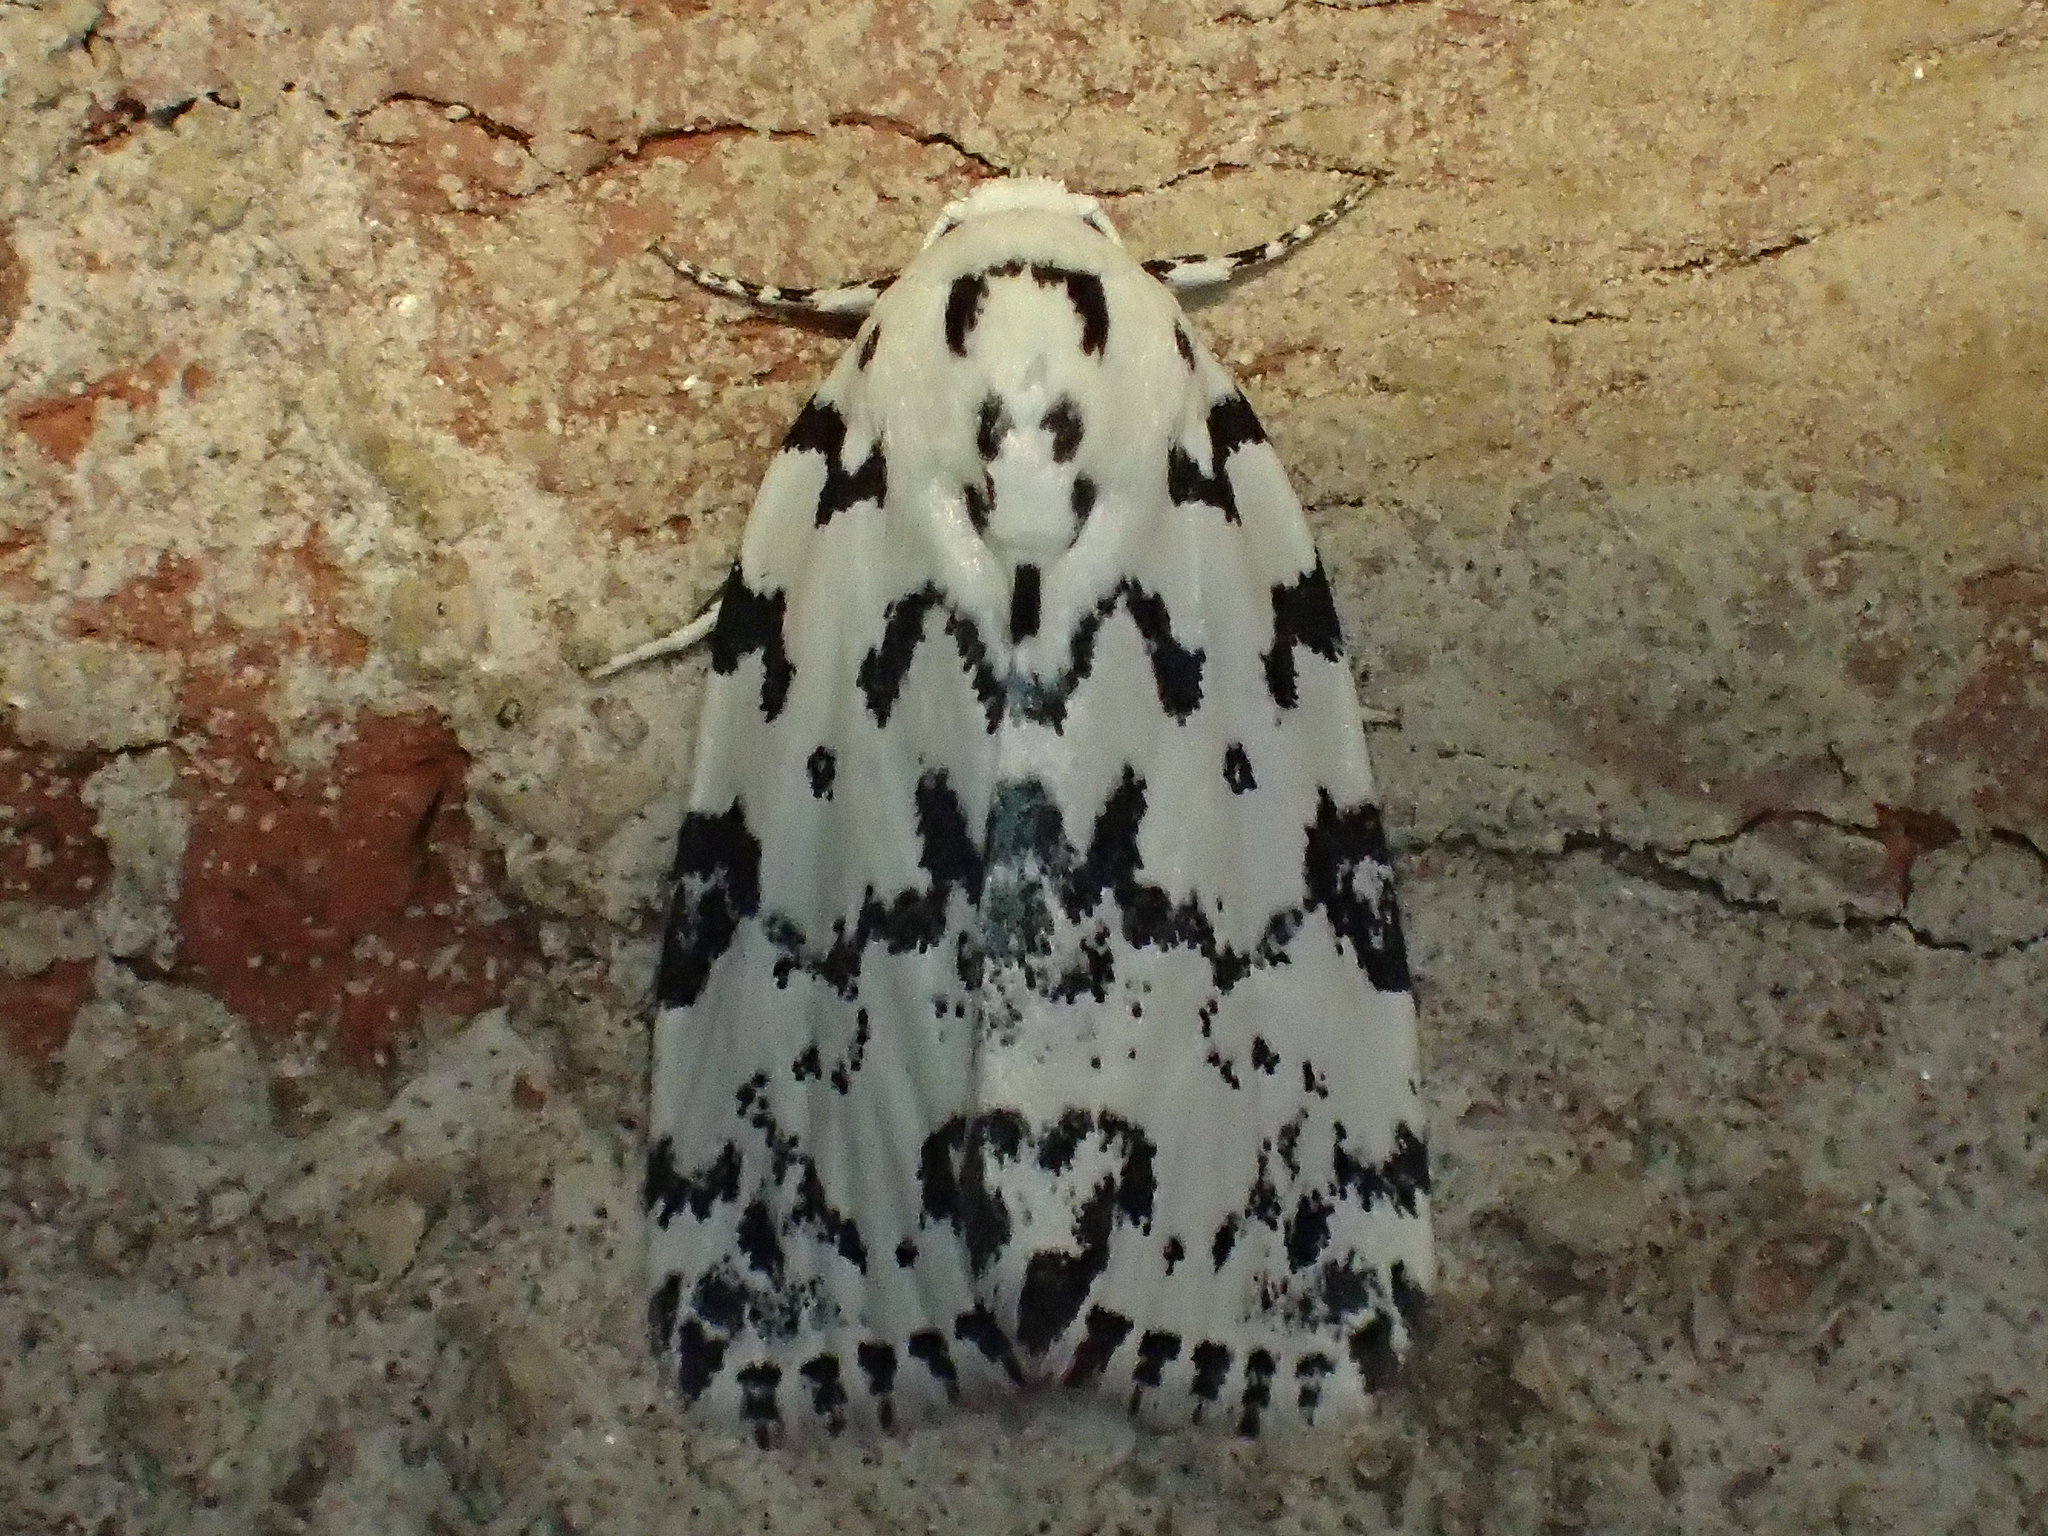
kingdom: Animalia
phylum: Arthropoda
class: Insecta
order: Lepidoptera
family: Noctuidae
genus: Polygrammate
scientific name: Polygrammate hebraeicum
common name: Hebrew moth
